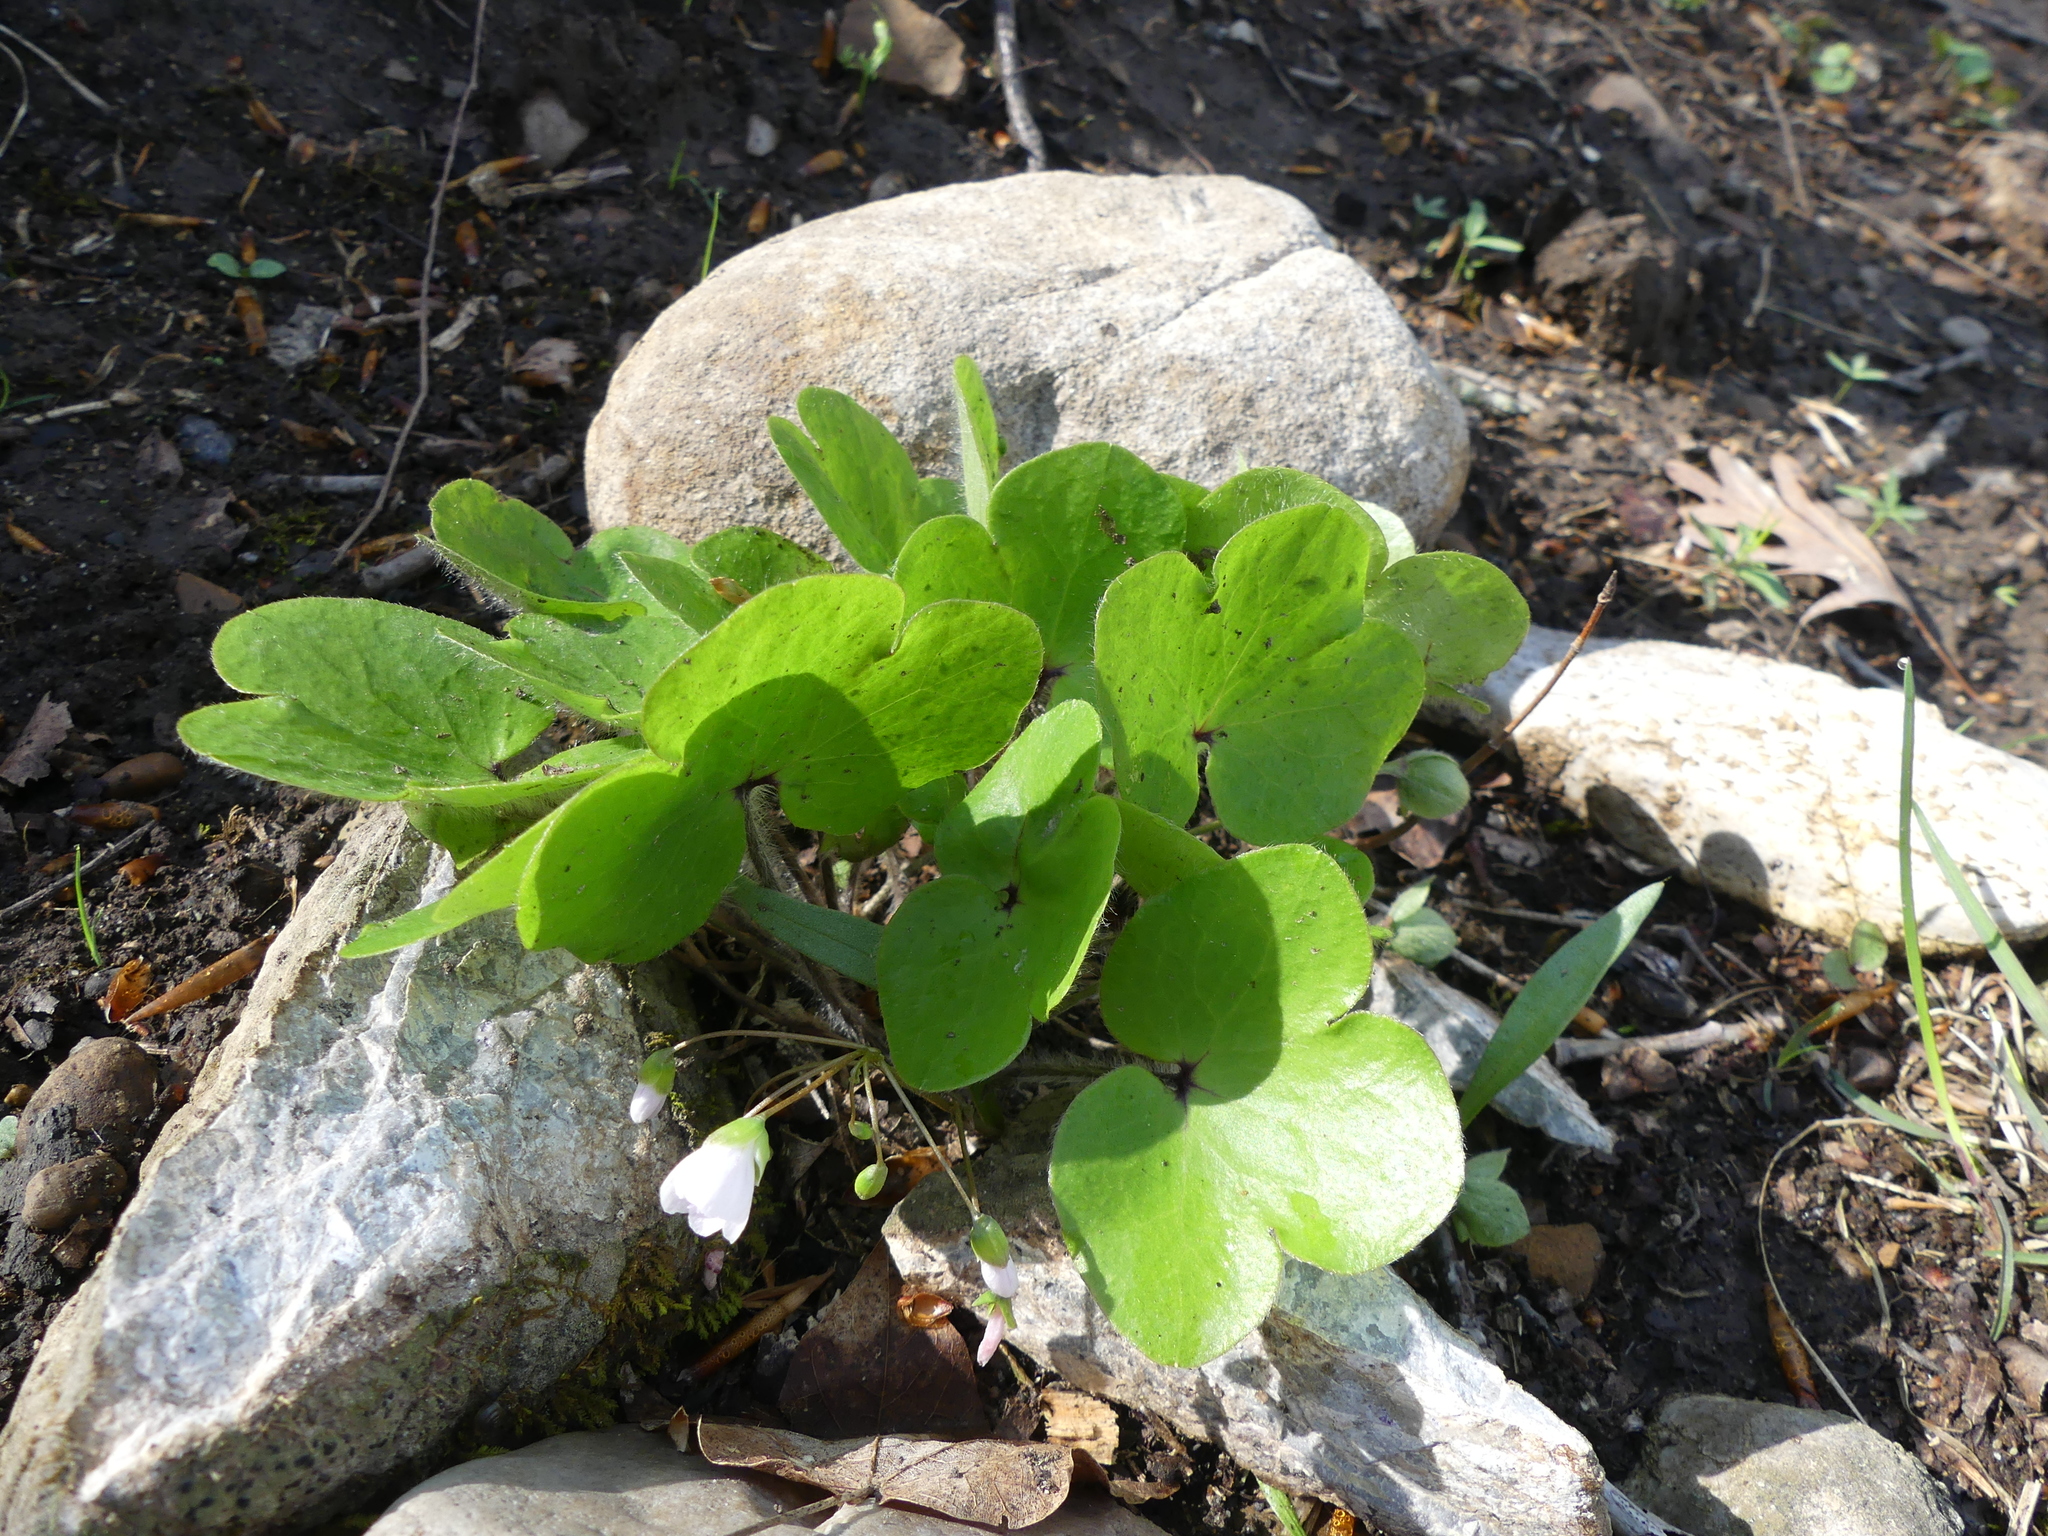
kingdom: Plantae
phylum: Tracheophyta
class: Magnoliopsida
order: Ranunculales
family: Ranunculaceae
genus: Hepatica
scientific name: Hepatica americana
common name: American hepatica
